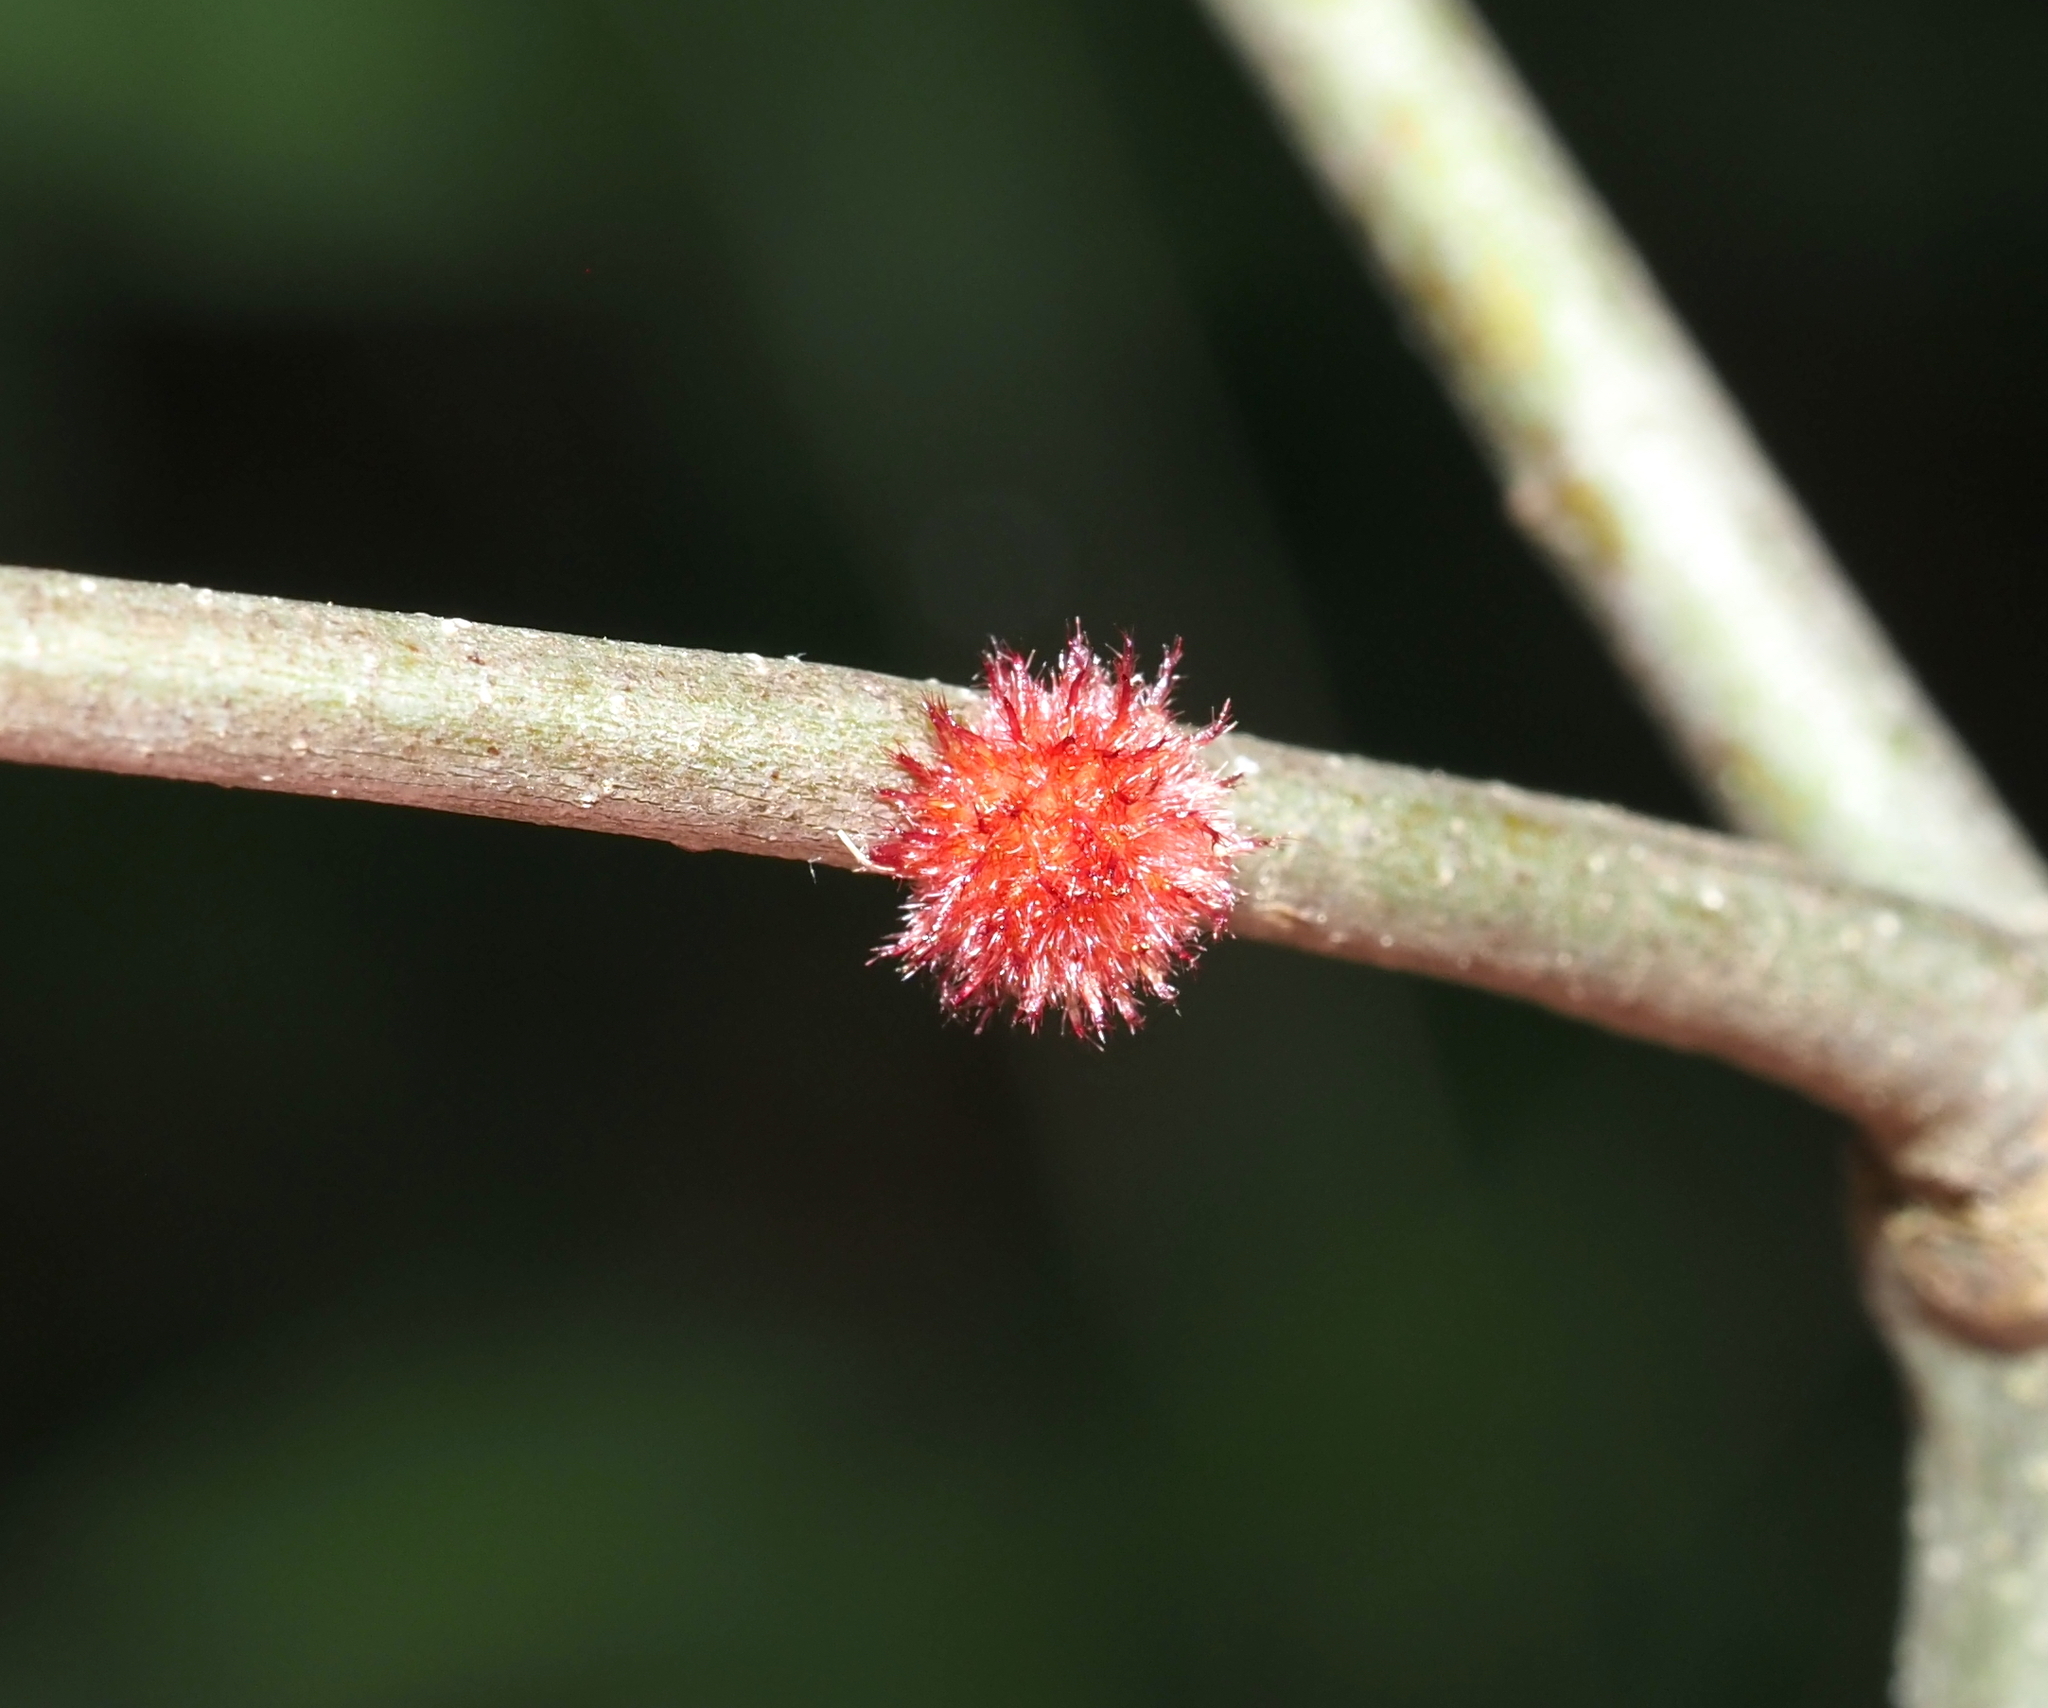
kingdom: Animalia
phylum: Arthropoda
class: Insecta
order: Hymenoptera
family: Cynipidae
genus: Dryocosmus
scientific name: Dryocosmus
